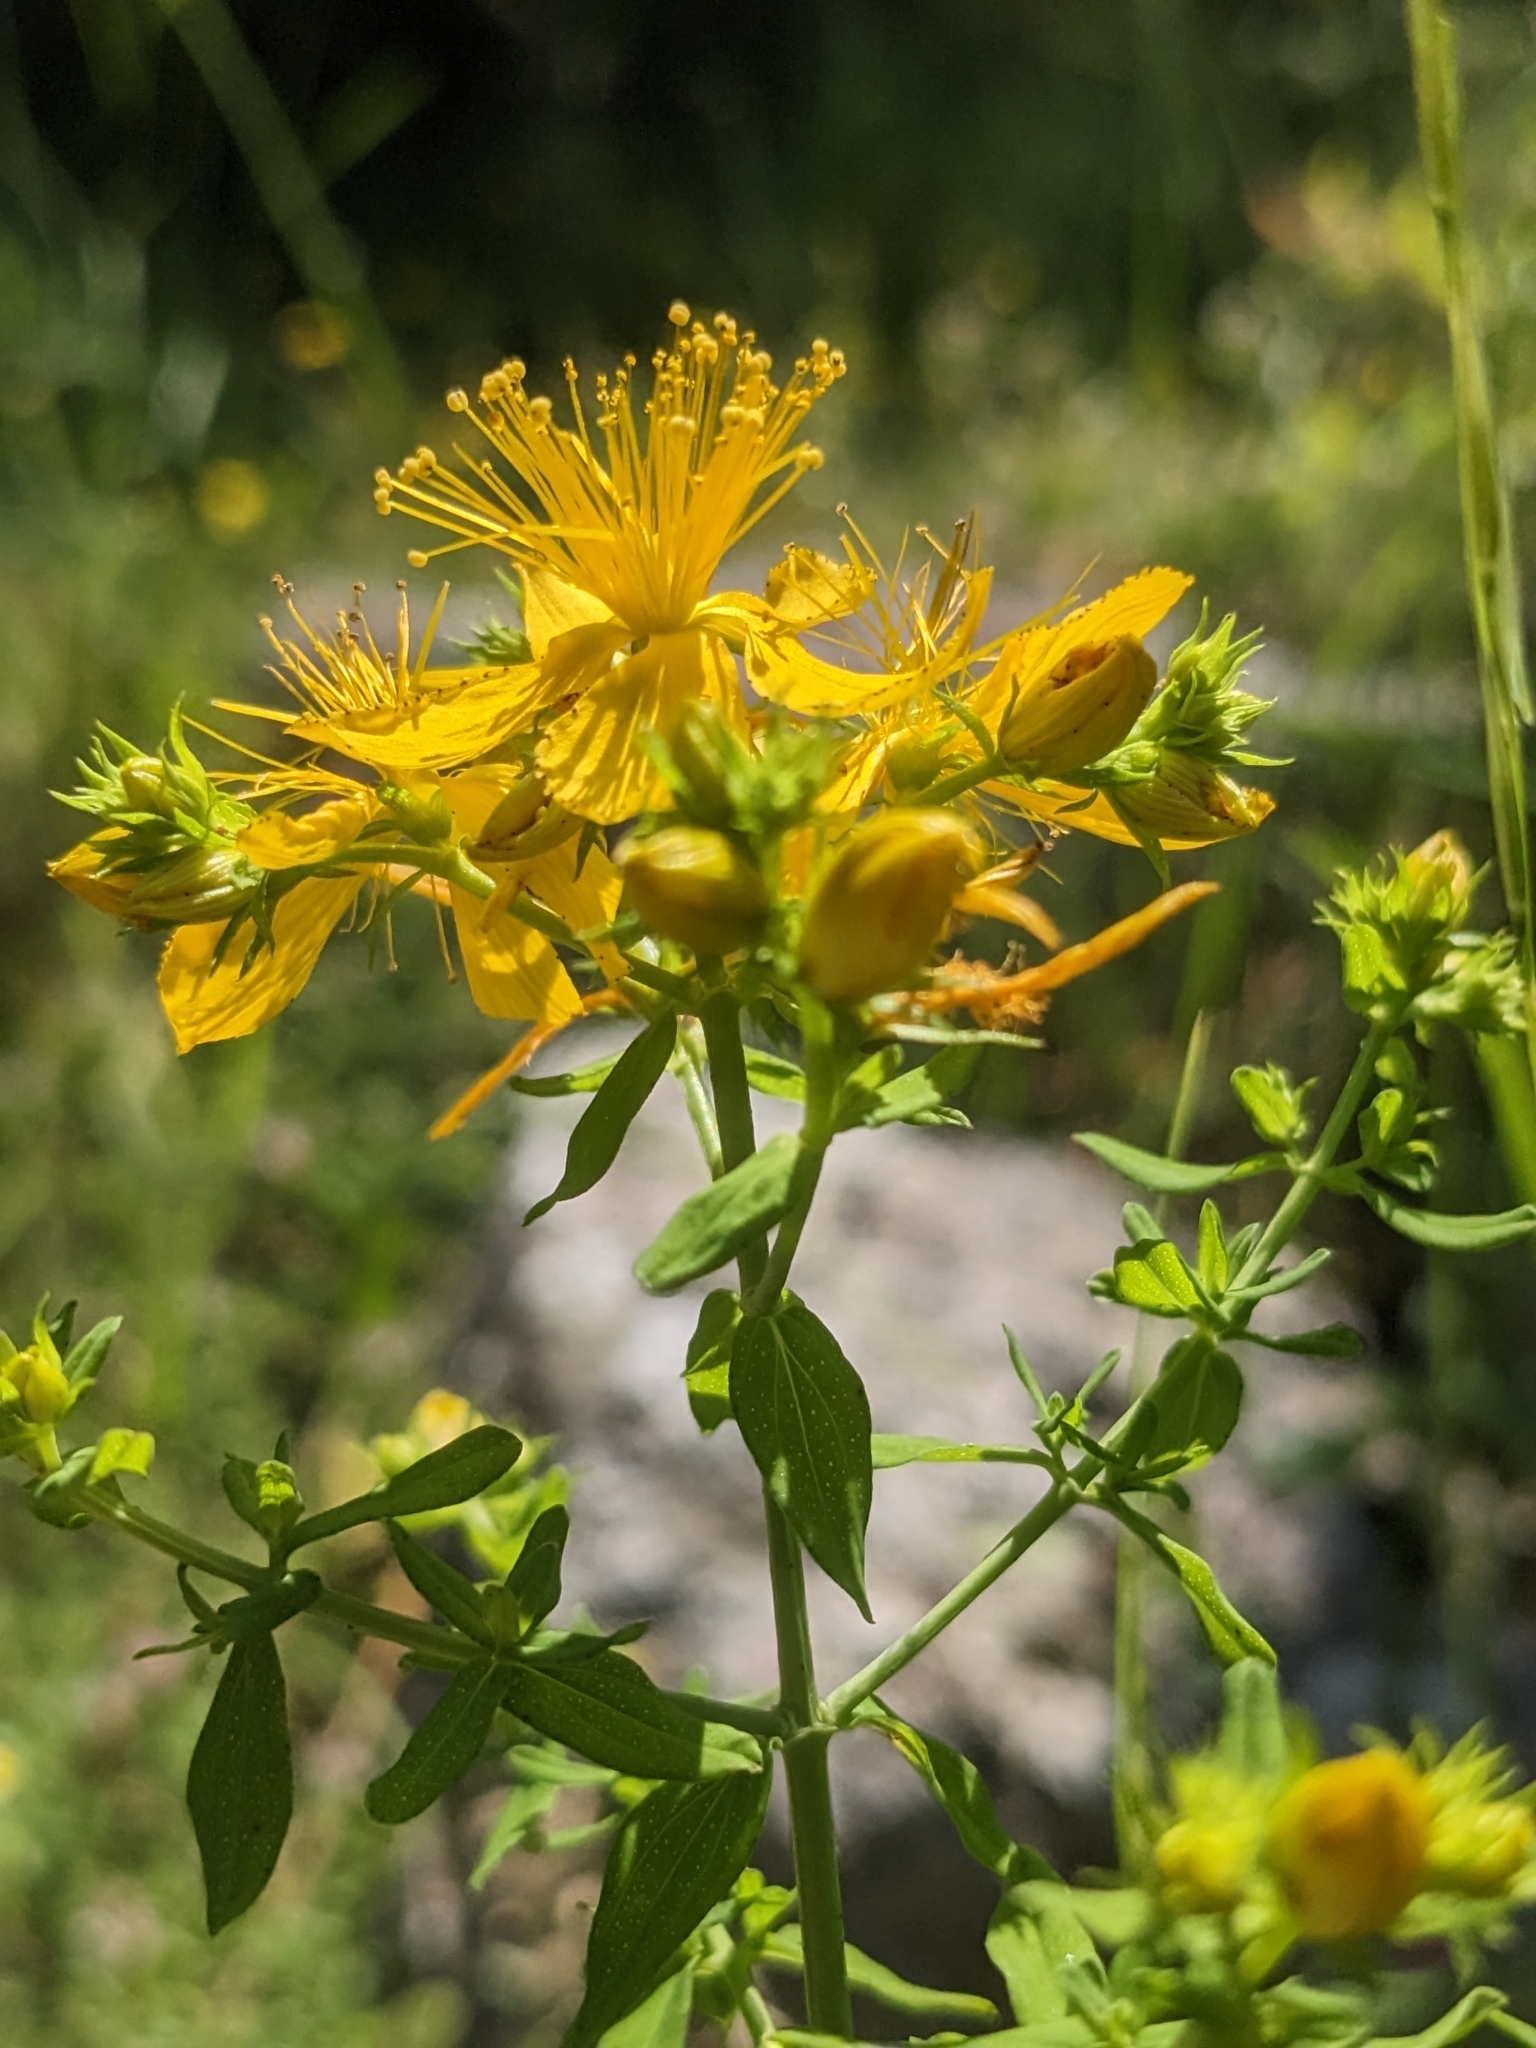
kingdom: Plantae
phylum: Tracheophyta
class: Magnoliopsida
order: Malpighiales
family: Hypericaceae
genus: Hypericum
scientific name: Hypericum perforatum
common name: Common st. johnswort
